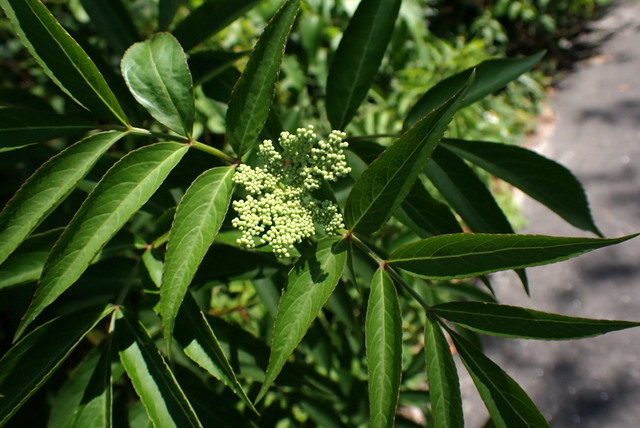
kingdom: Plantae
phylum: Tracheophyta
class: Magnoliopsida
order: Dipsacales
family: Viburnaceae
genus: Sambucus
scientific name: Sambucus canadensis
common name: American elder
